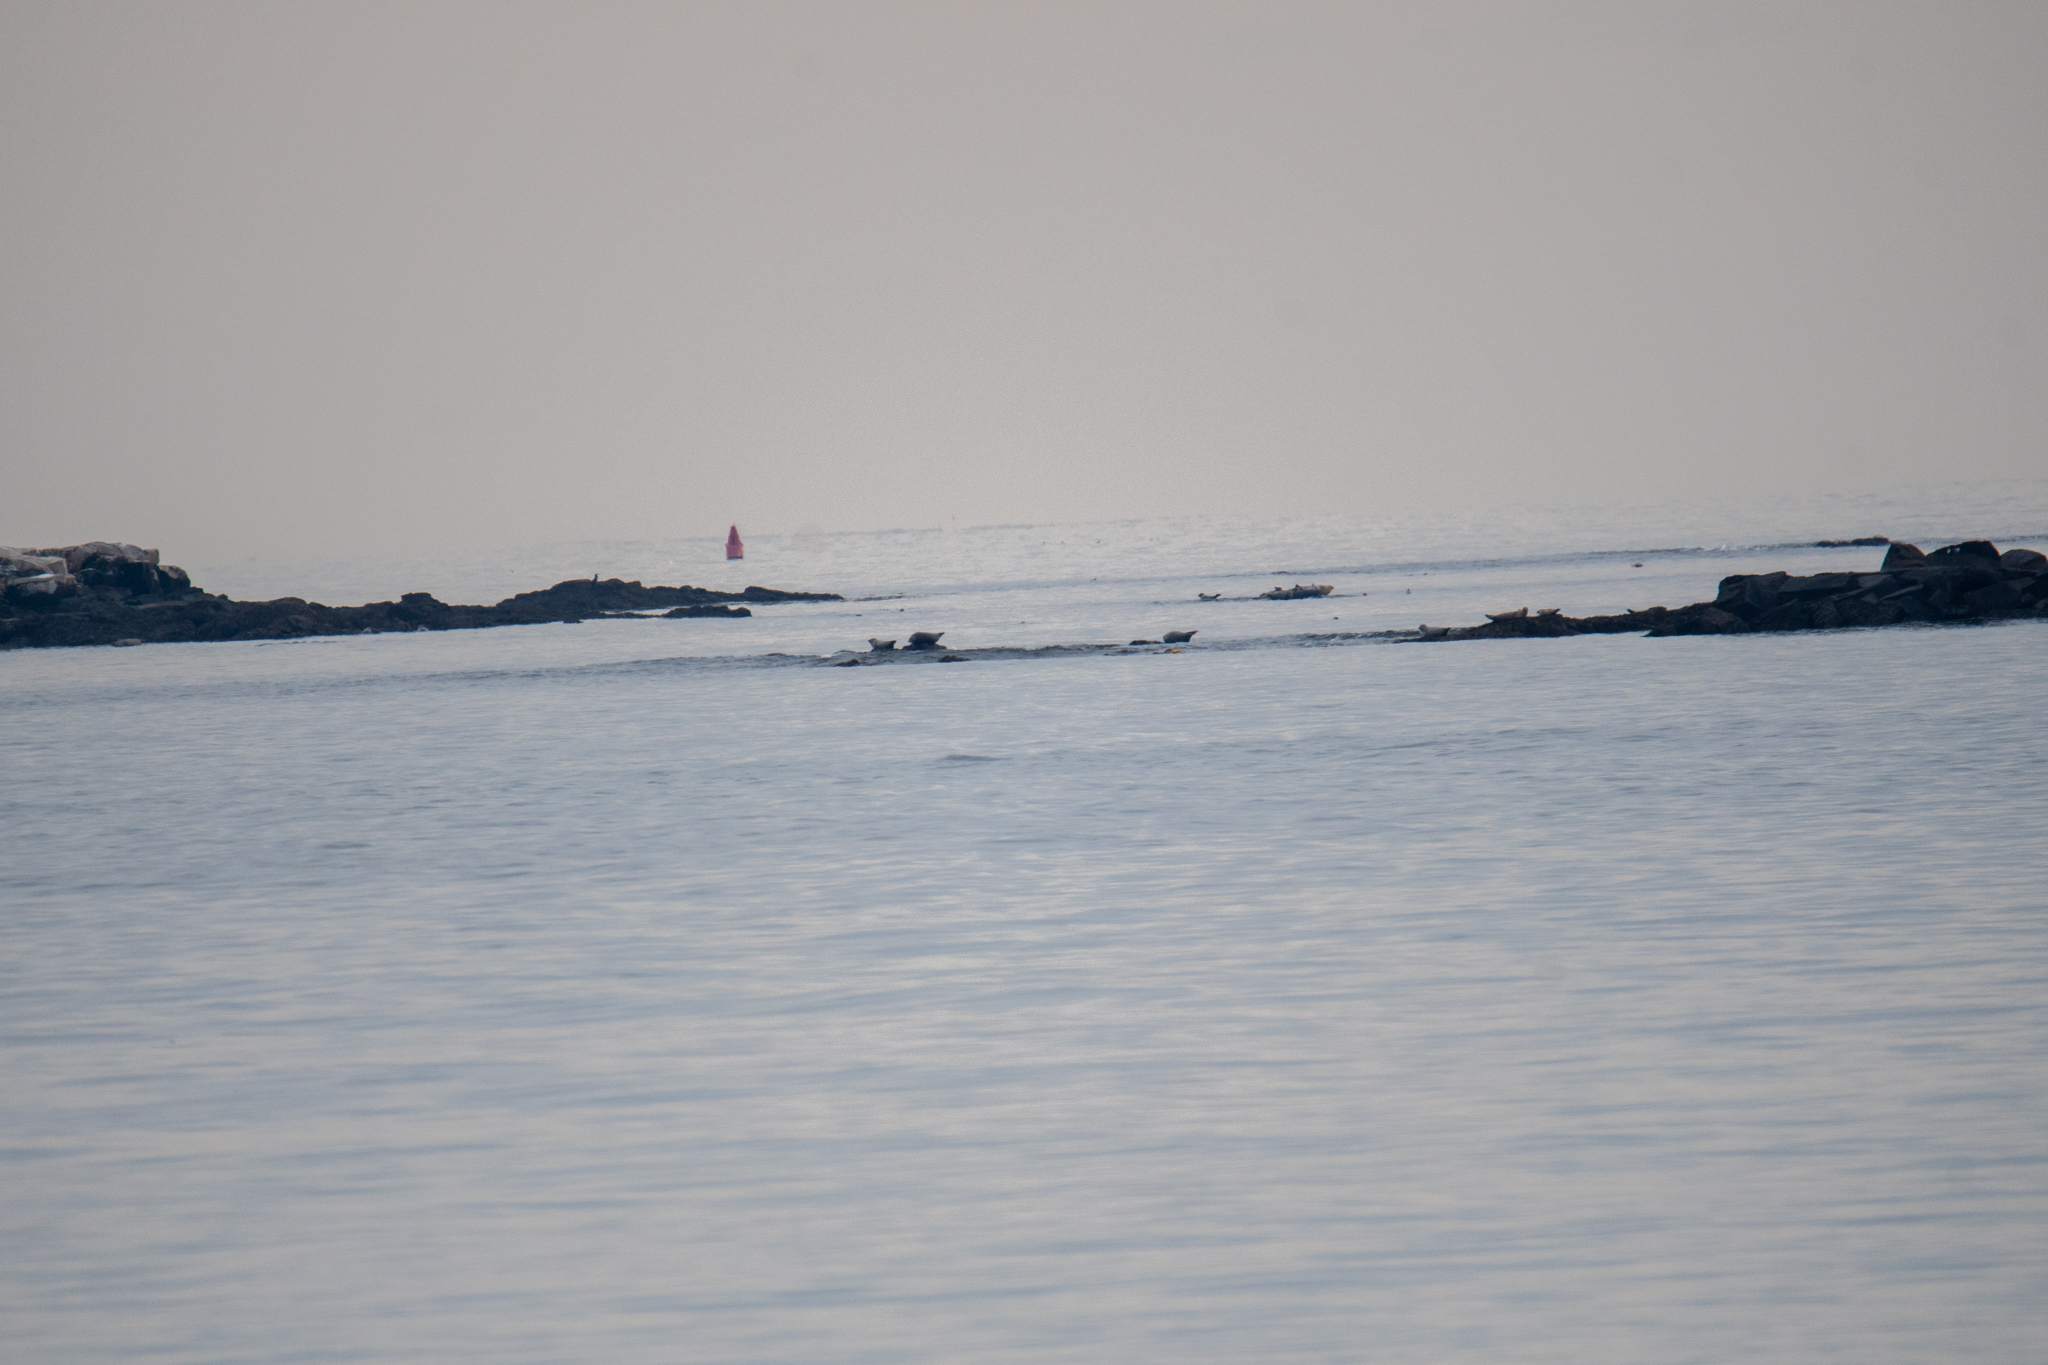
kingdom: Animalia
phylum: Chordata
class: Mammalia
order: Carnivora
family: Phocidae
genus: Phoca
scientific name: Phoca vitulina
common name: Harbor seal
